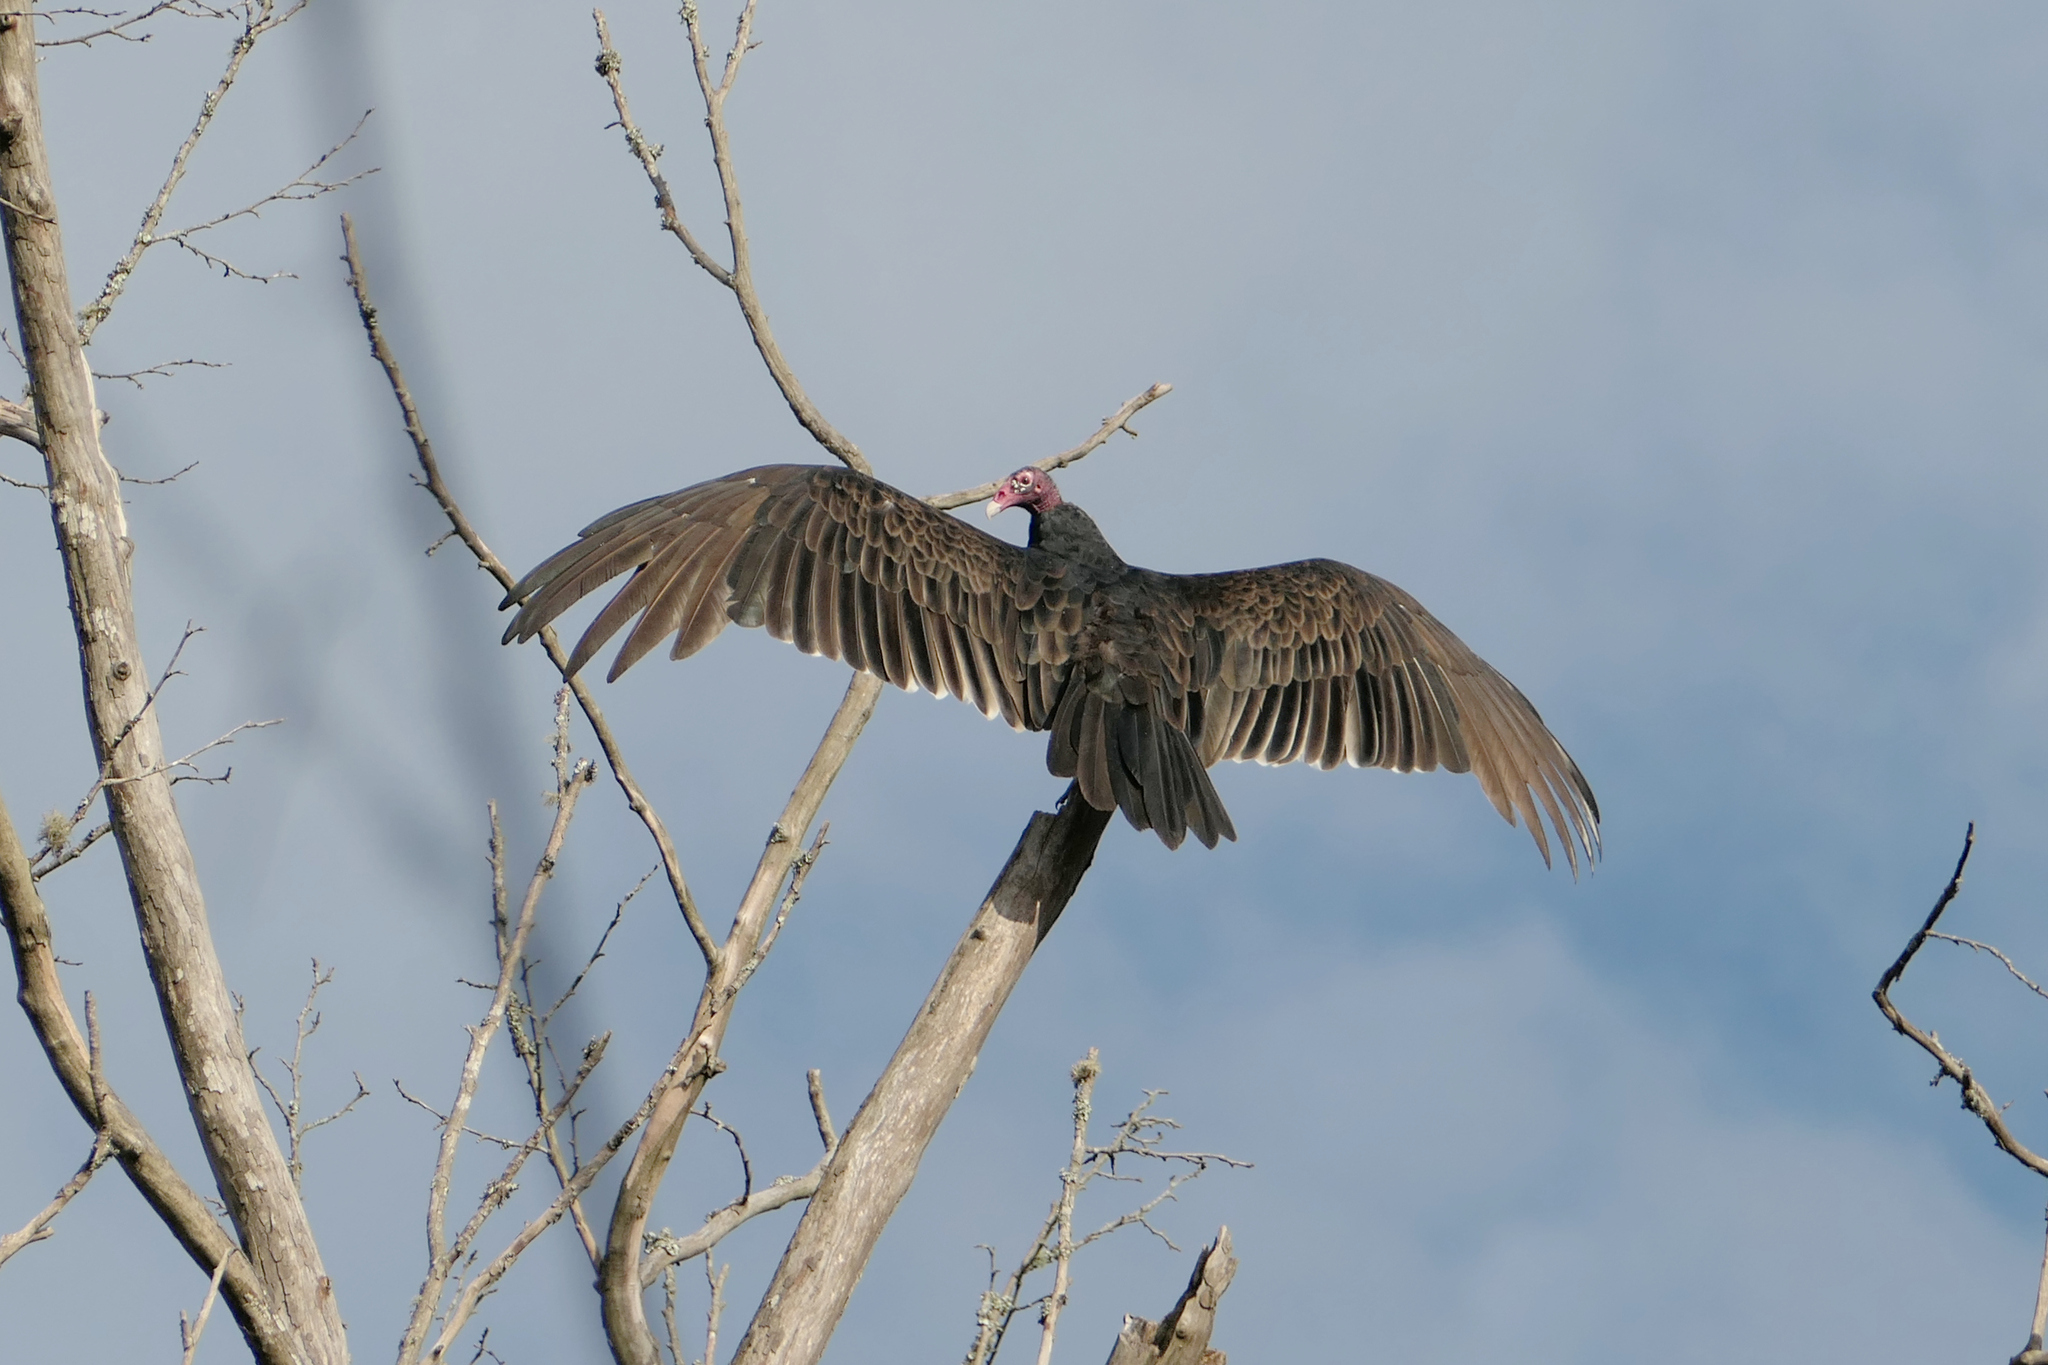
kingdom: Animalia
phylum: Chordata
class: Aves
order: Accipitriformes
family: Cathartidae
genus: Cathartes
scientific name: Cathartes aura
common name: Turkey vulture
